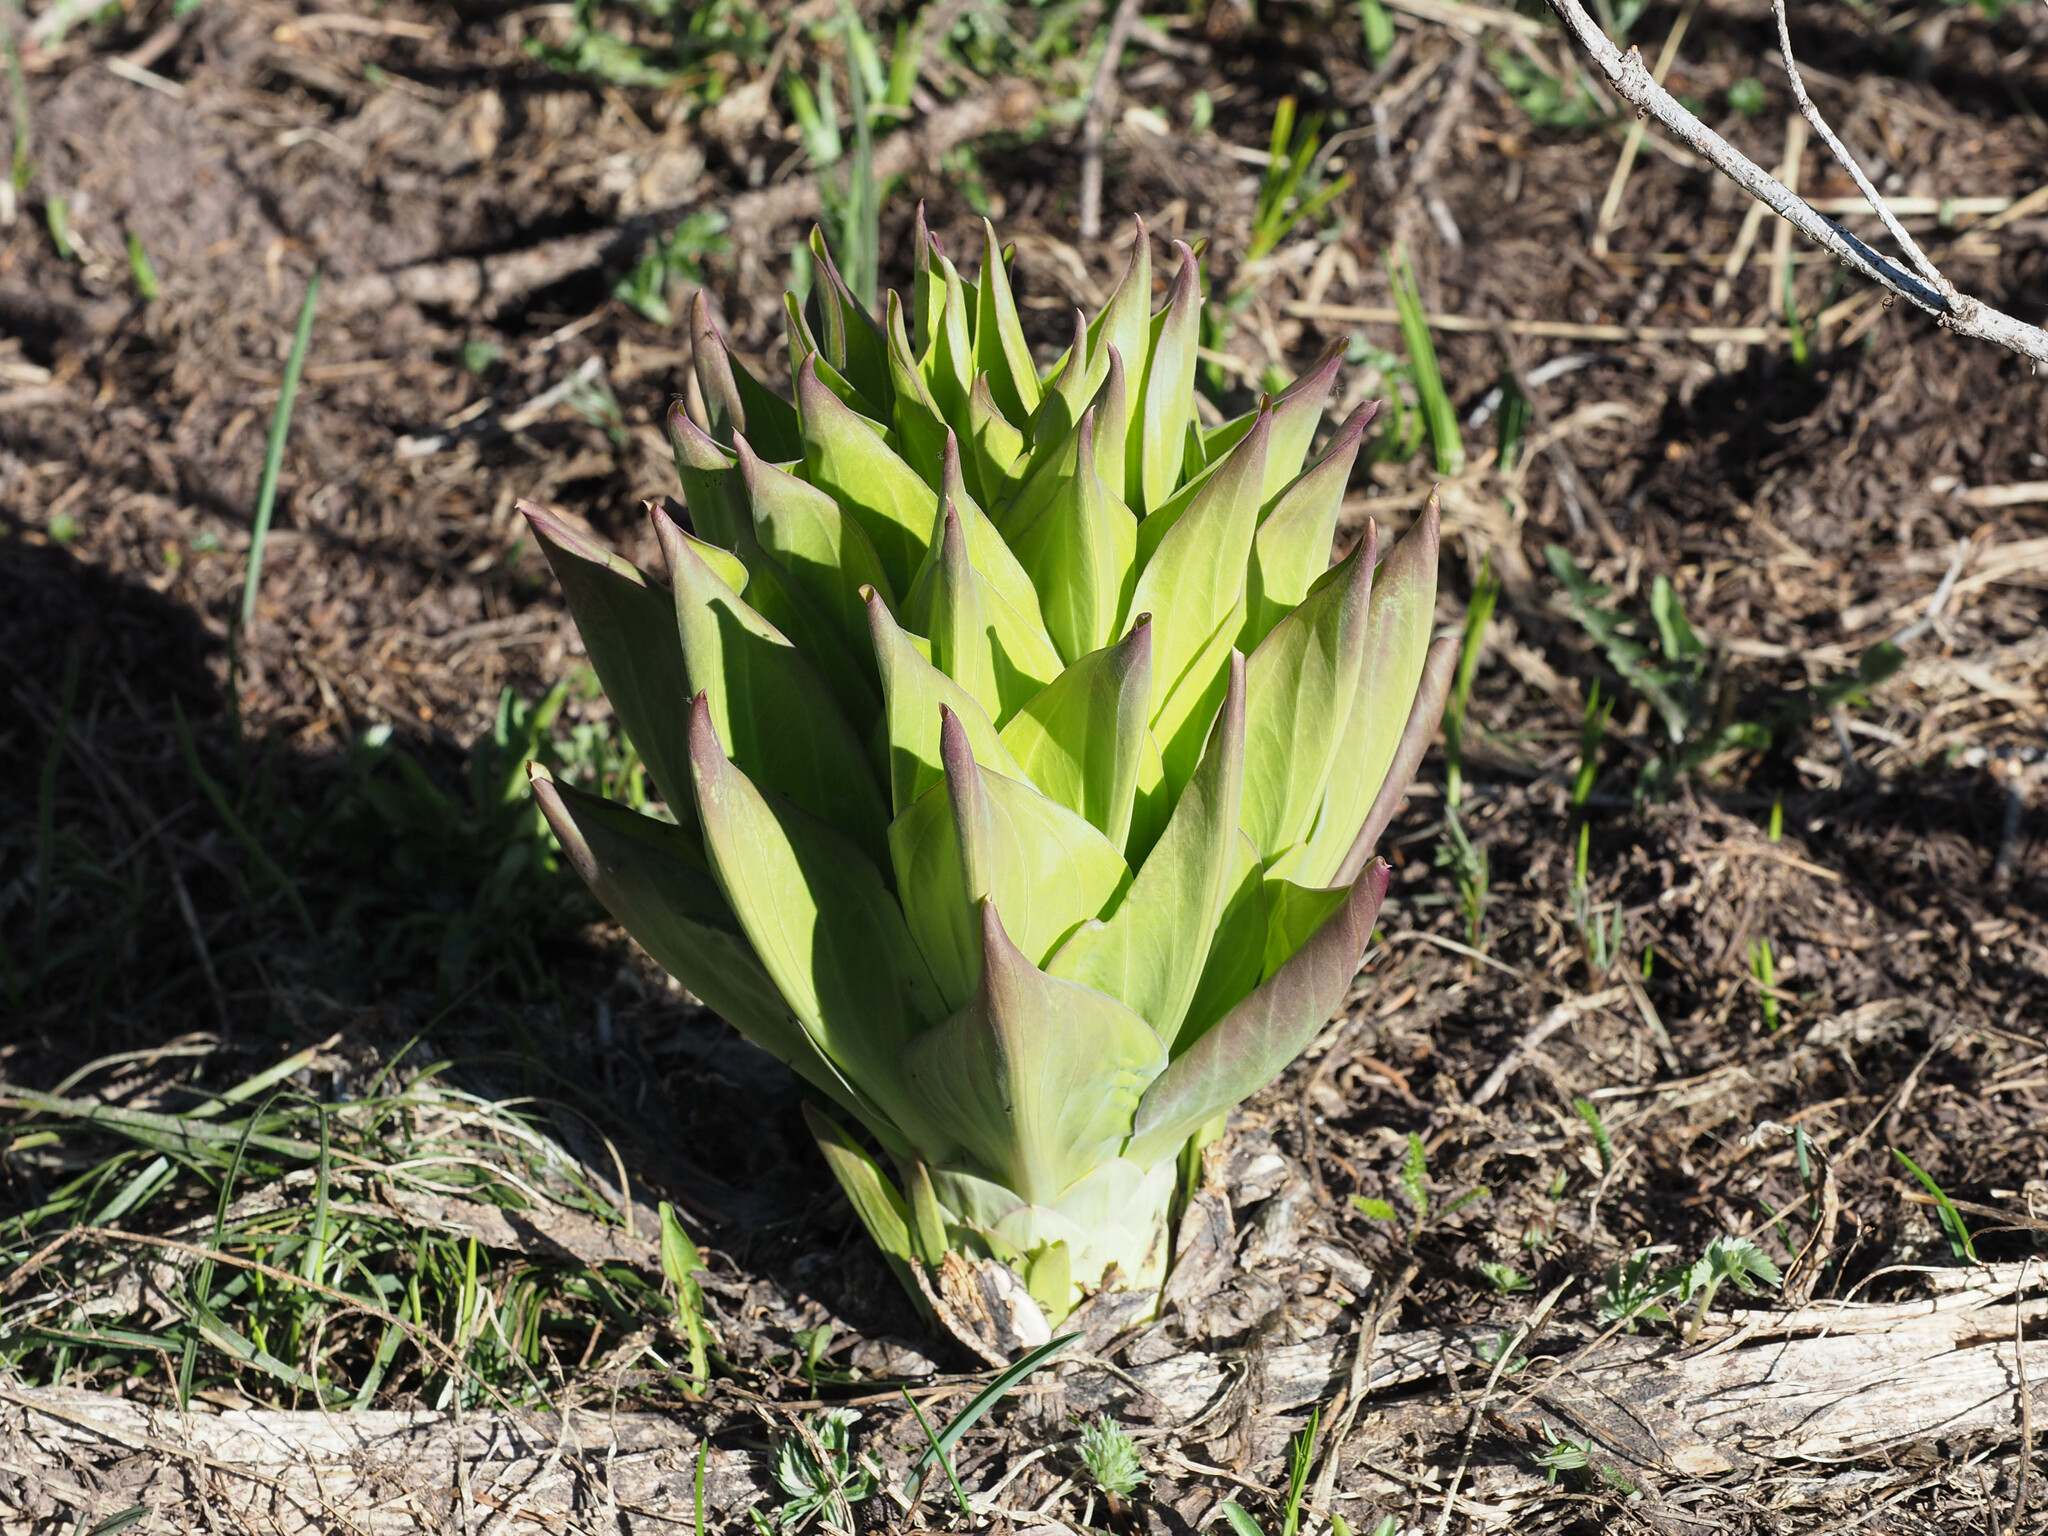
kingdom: Plantae
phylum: Tracheophyta
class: Magnoliopsida
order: Gentianales
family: Gentianaceae
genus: Frasera
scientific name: Frasera speciosa
